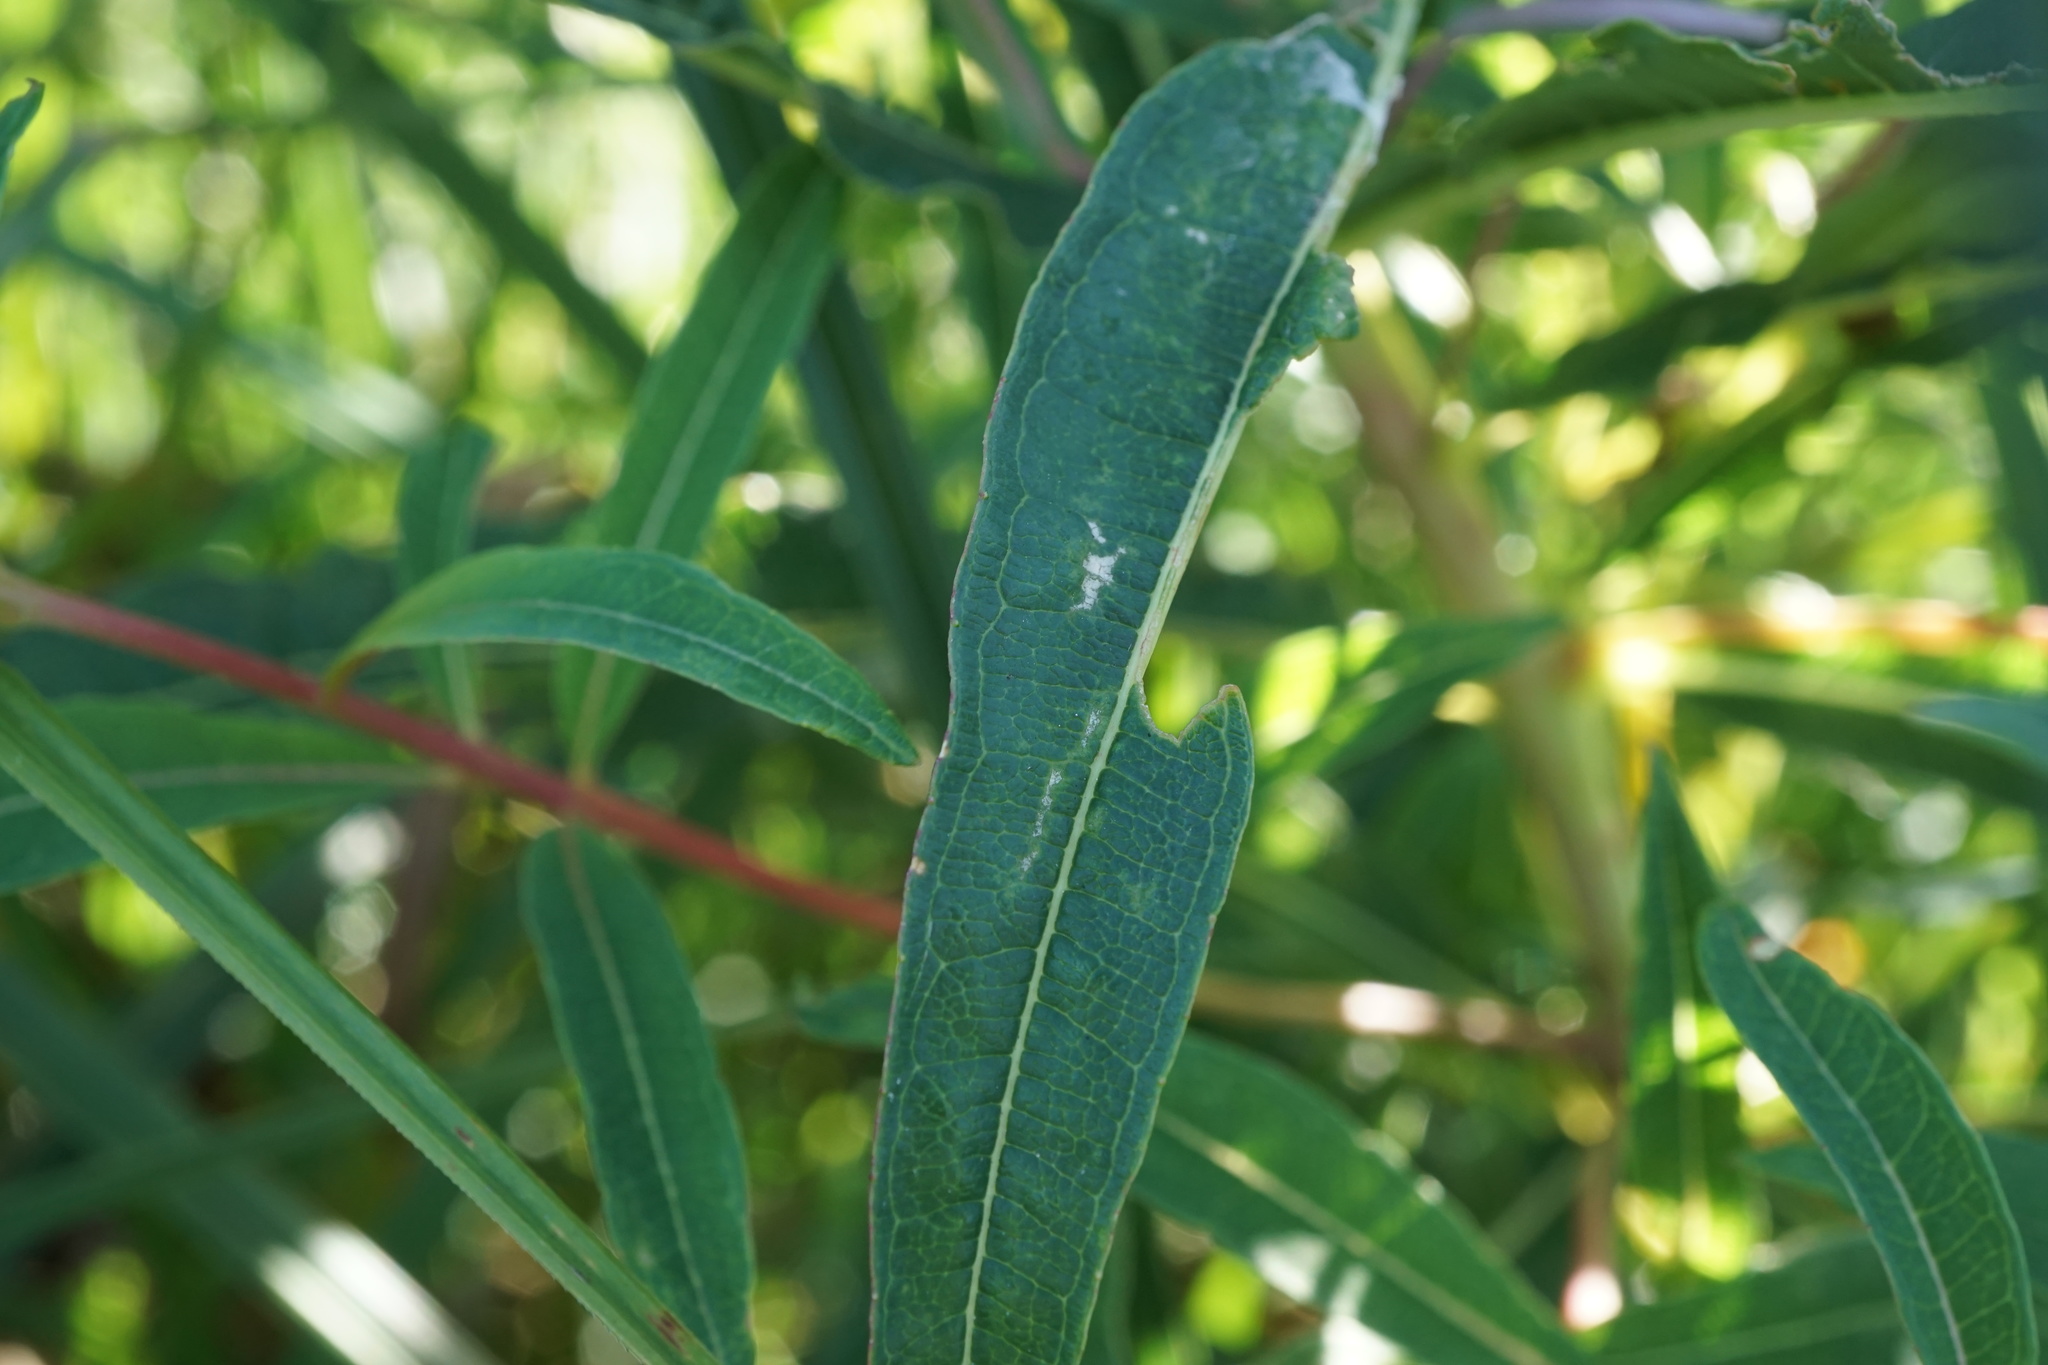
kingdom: Plantae
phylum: Tracheophyta
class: Magnoliopsida
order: Myrtales
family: Onagraceae
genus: Chamaenerion
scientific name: Chamaenerion angustifolium
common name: Fireweed
